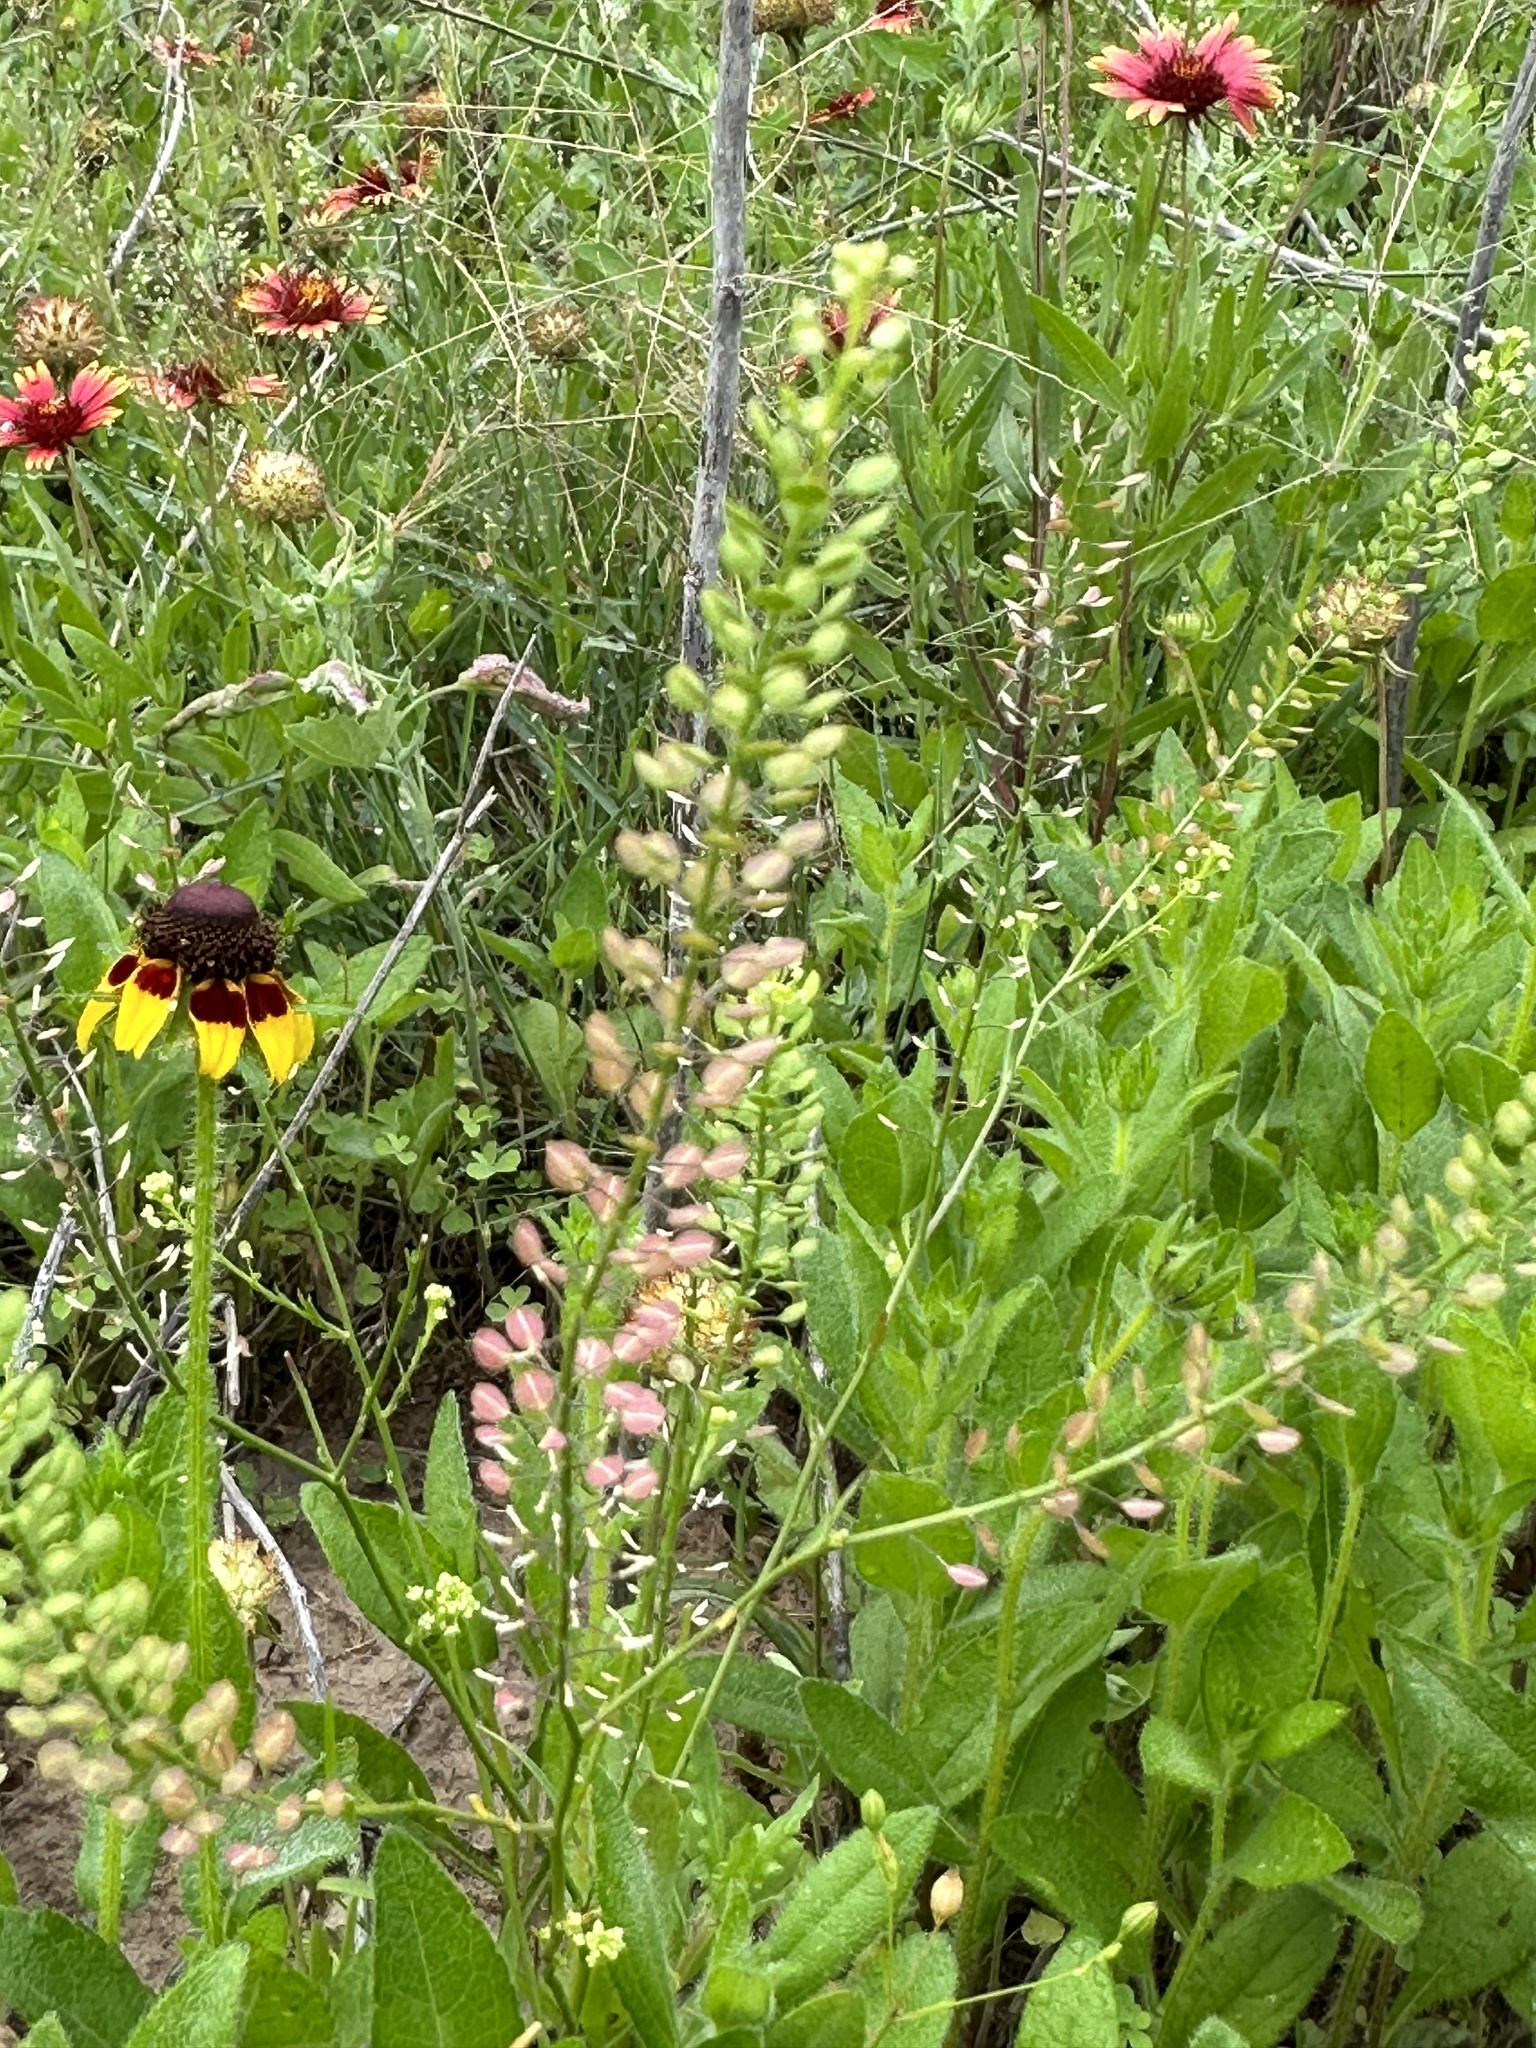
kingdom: Plantae
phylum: Tracheophyta
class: Magnoliopsida
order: Brassicales
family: Brassicaceae
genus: Lepidium
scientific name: Lepidium virginicum
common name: Least pepperwort
